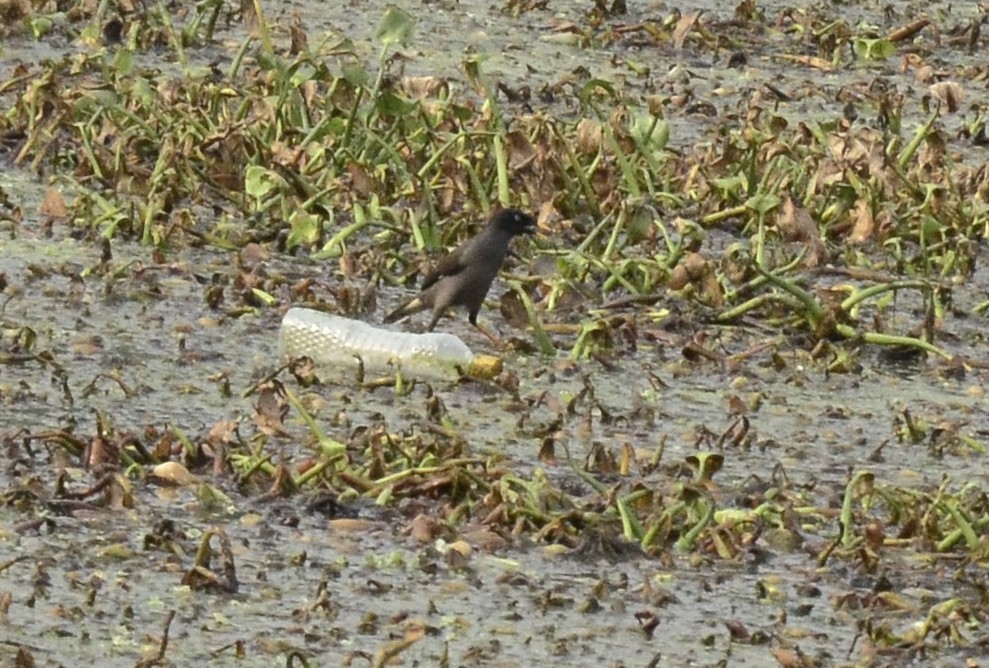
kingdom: Animalia
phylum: Chordata
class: Aves
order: Passeriformes
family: Sturnidae
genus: Acridotheres
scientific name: Acridotheres fuscus
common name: Jungle myna
